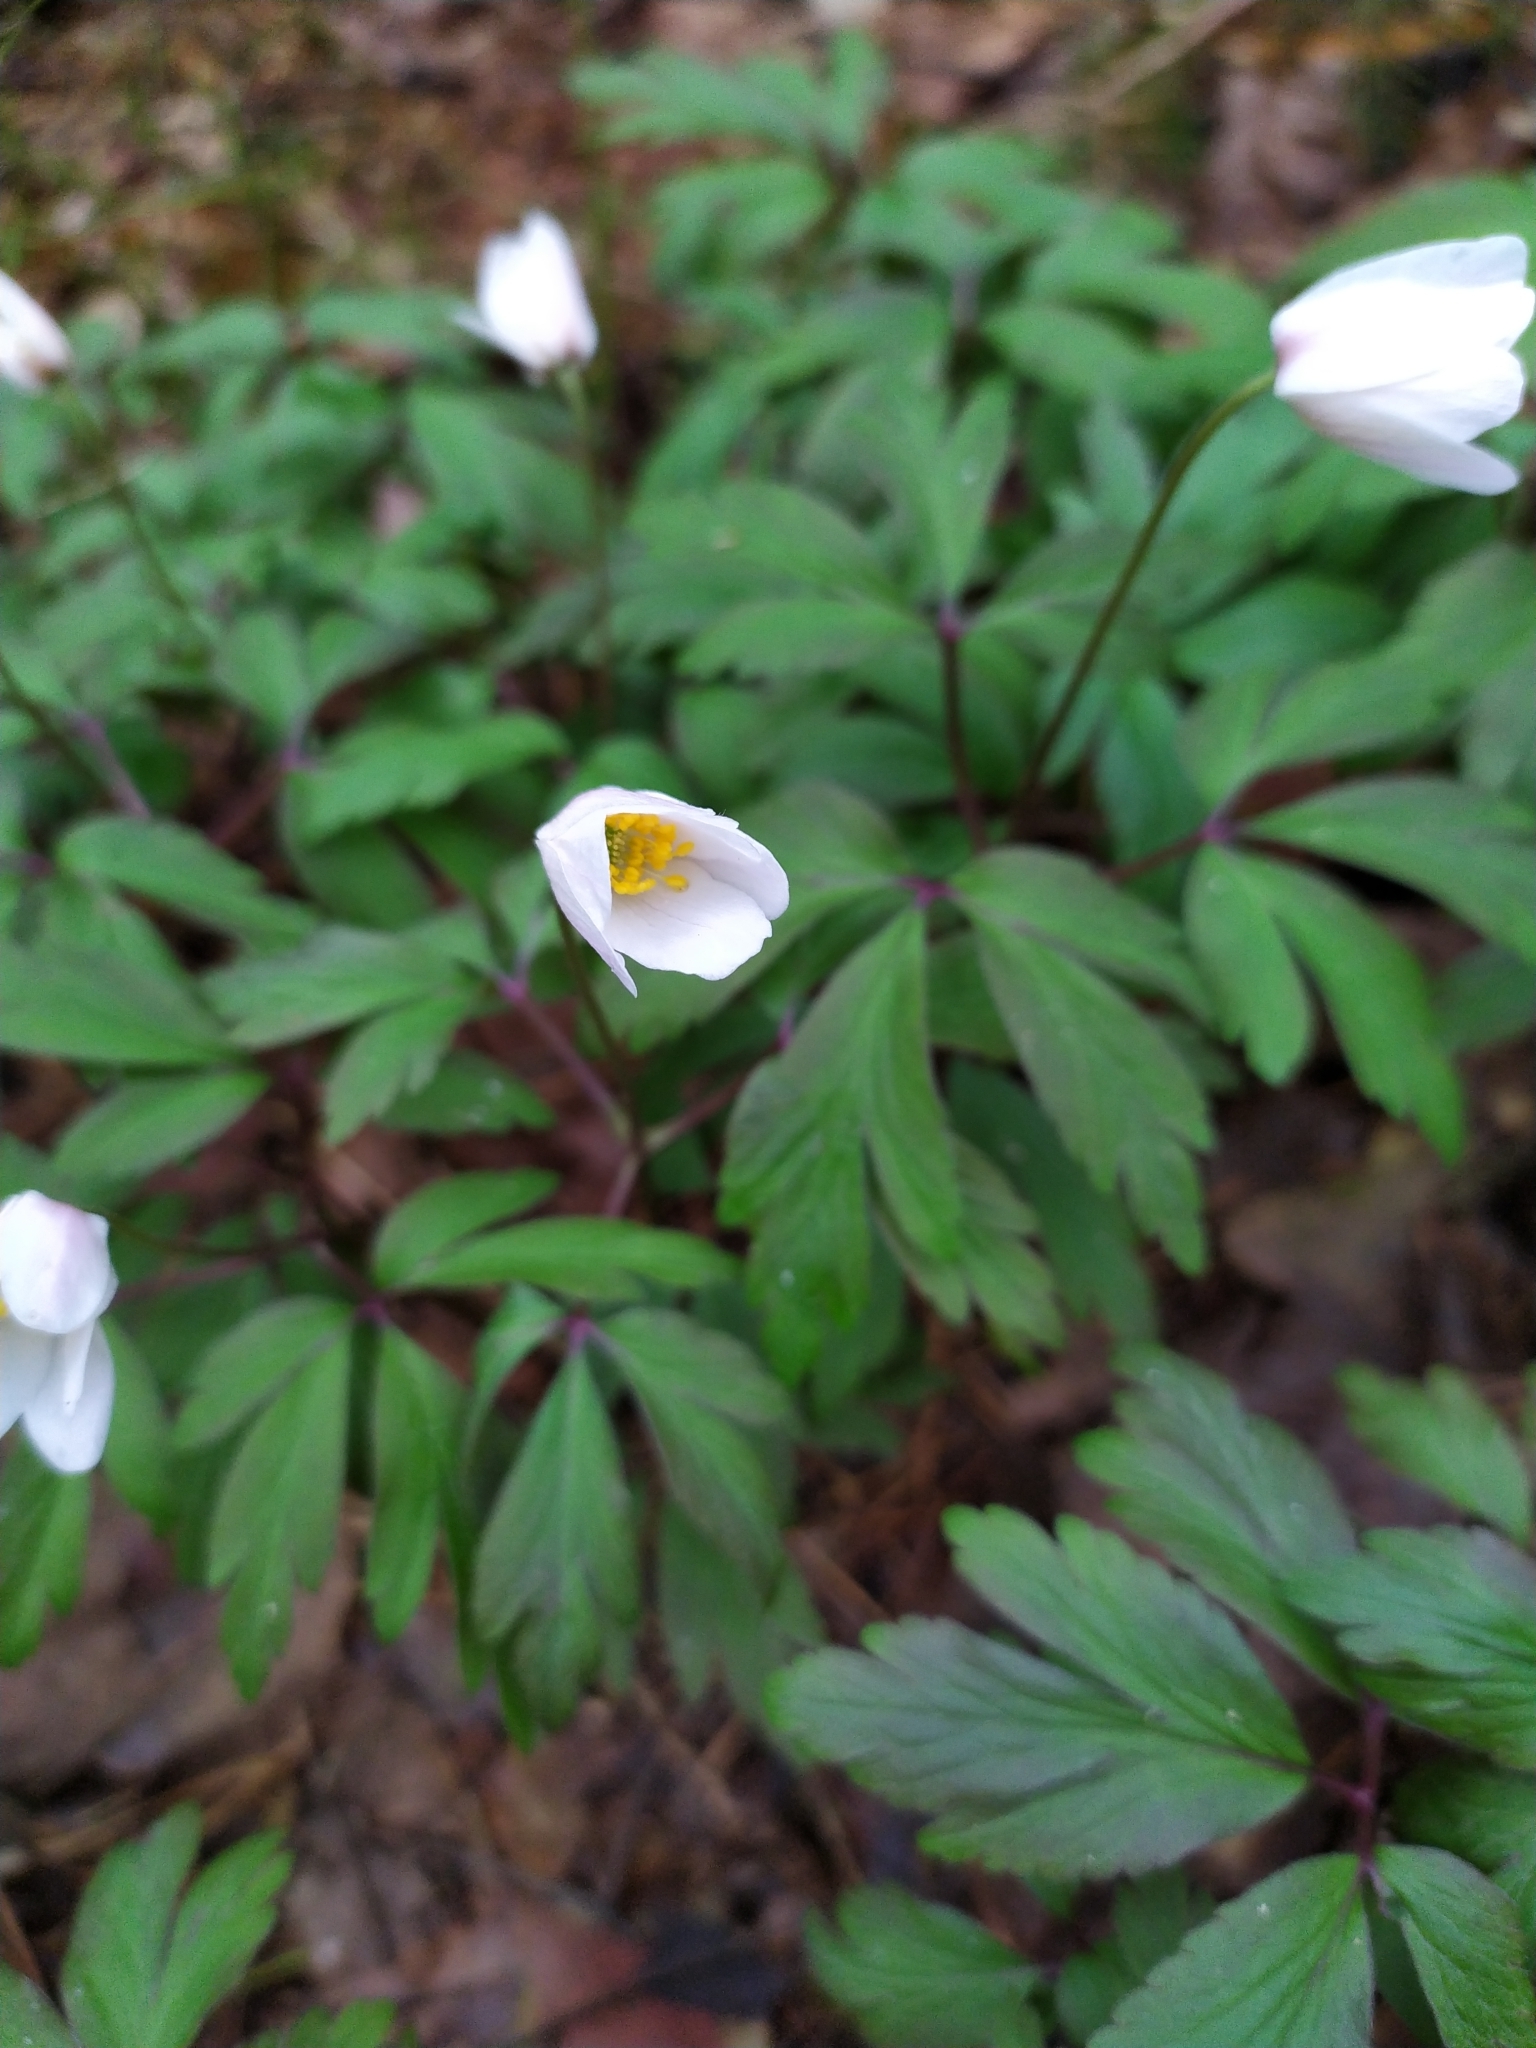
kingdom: Plantae
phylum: Tracheophyta
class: Magnoliopsida
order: Ranunculales
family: Ranunculaceae
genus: Anemone
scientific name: Anemone nemorosa
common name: Wood anemone
